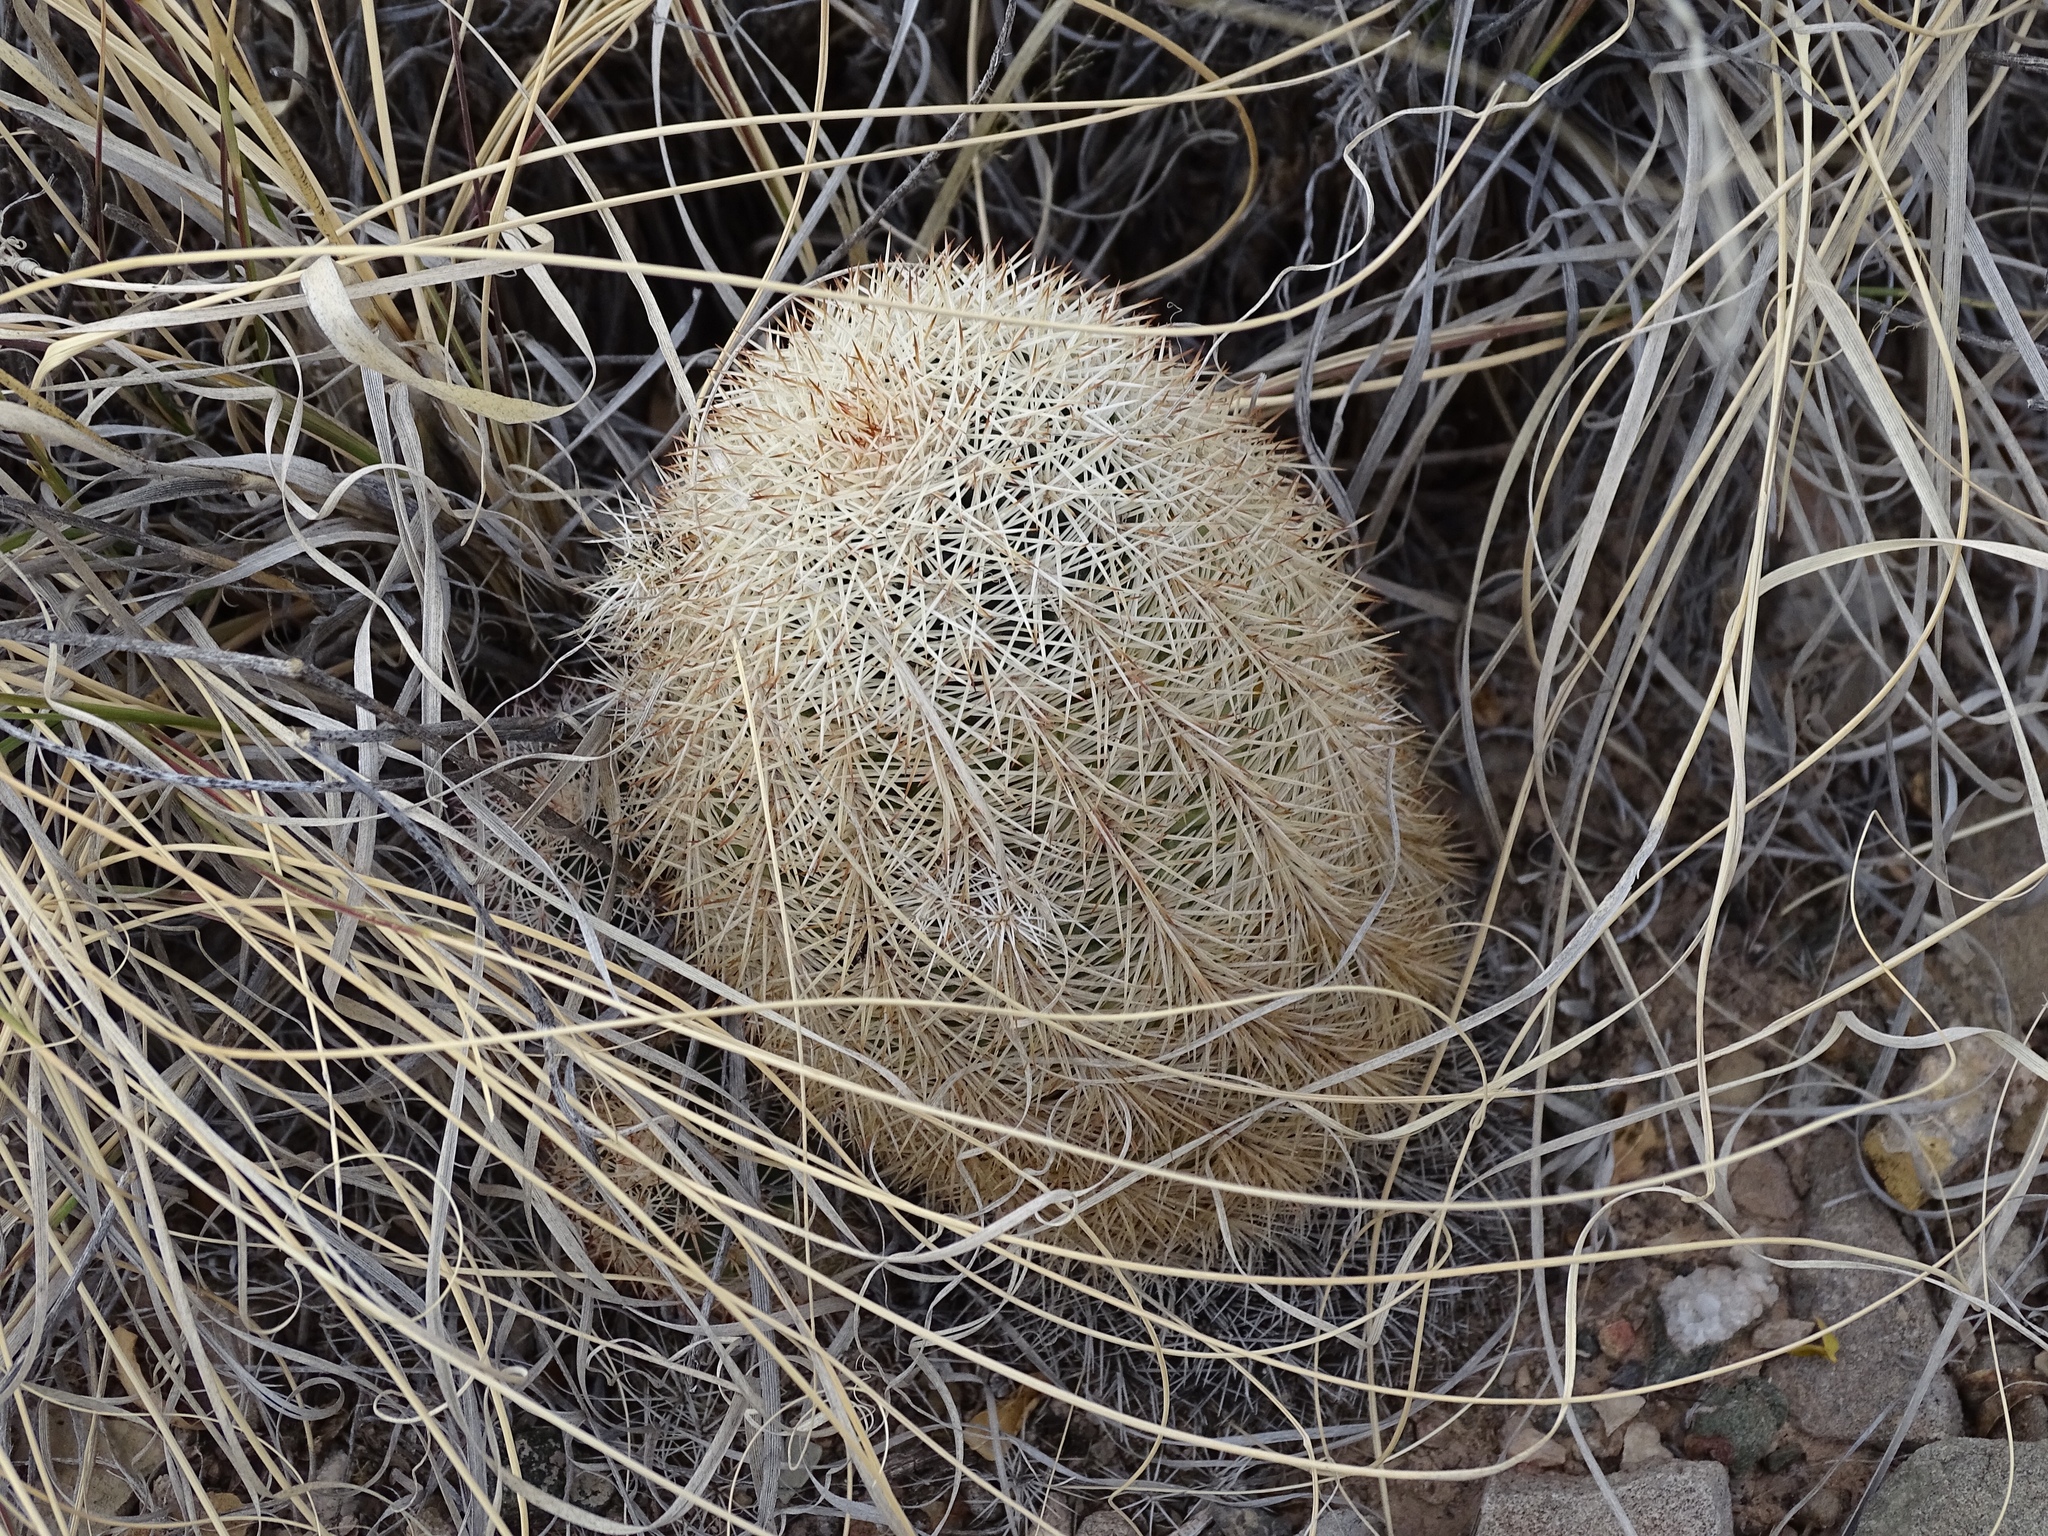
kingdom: Plantae
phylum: Tracheophyta
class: Magnoliopsida
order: Caryophyllales
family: Cactaceae
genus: Echinocereus
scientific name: Echinocereus dasyacanthus
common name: Spiny hedgehog cactus
